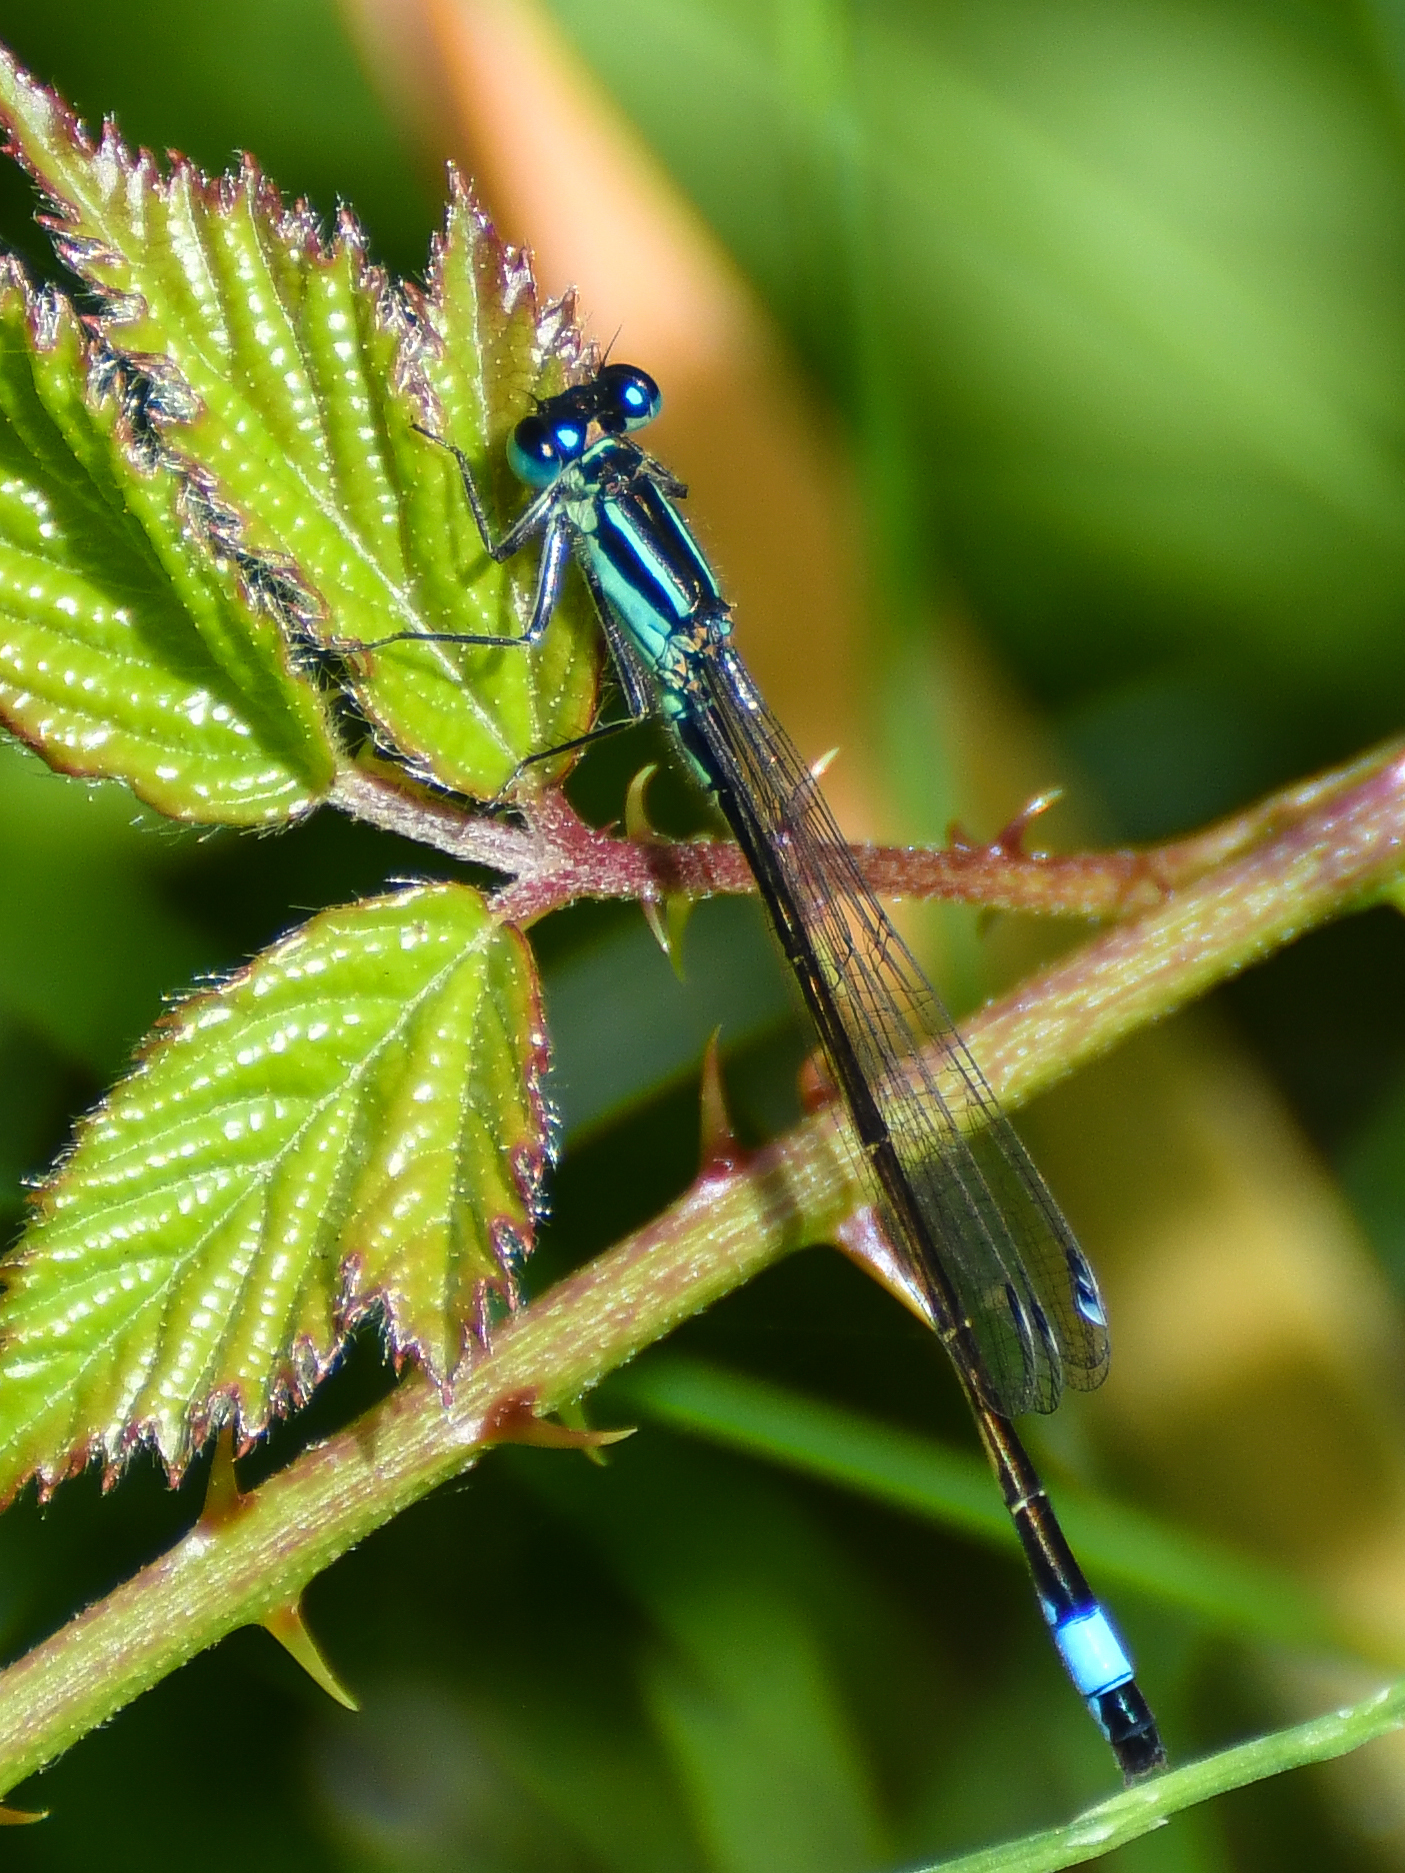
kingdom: Animalia
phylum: Arthropoda
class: Insecta
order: Odonata
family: Coenagrionidae
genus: Ischnura
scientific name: Ischnura elegans
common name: Blue-tailed damselfly
